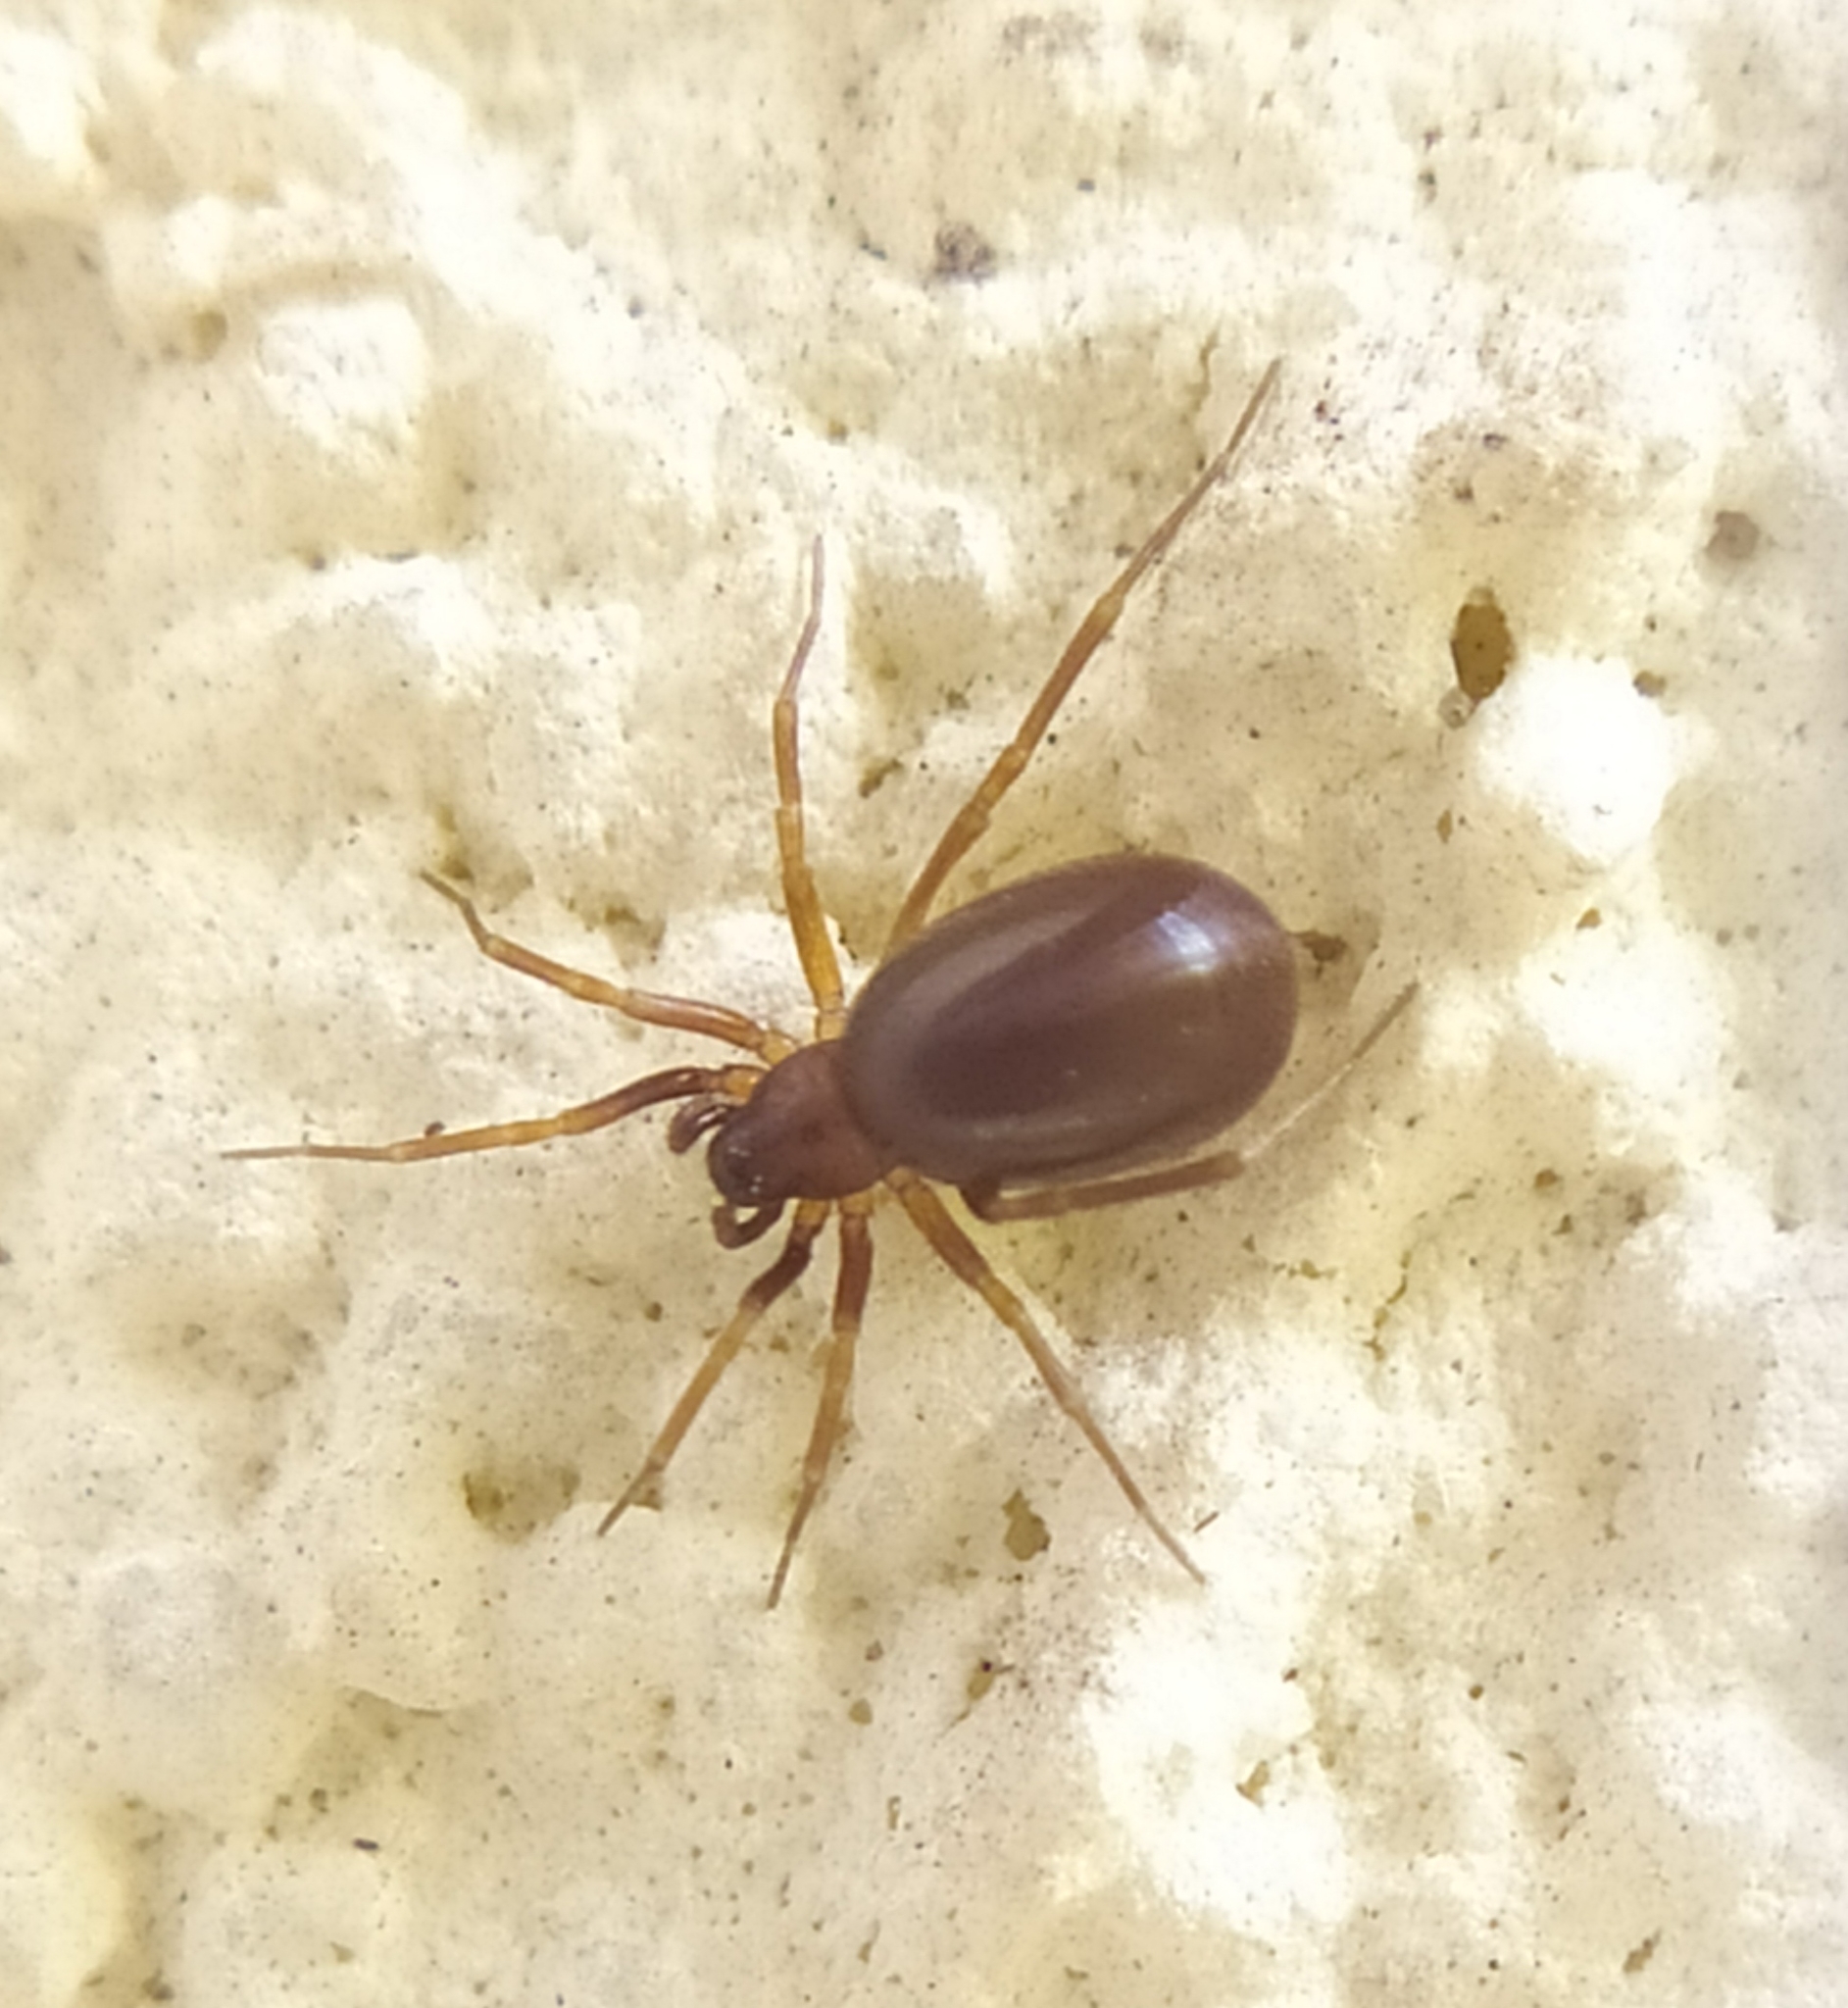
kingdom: Animalia
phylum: Arthropoda
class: Arachnida
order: Araneae
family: Zodariidae
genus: Zodarion
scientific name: Zodarion italicum
